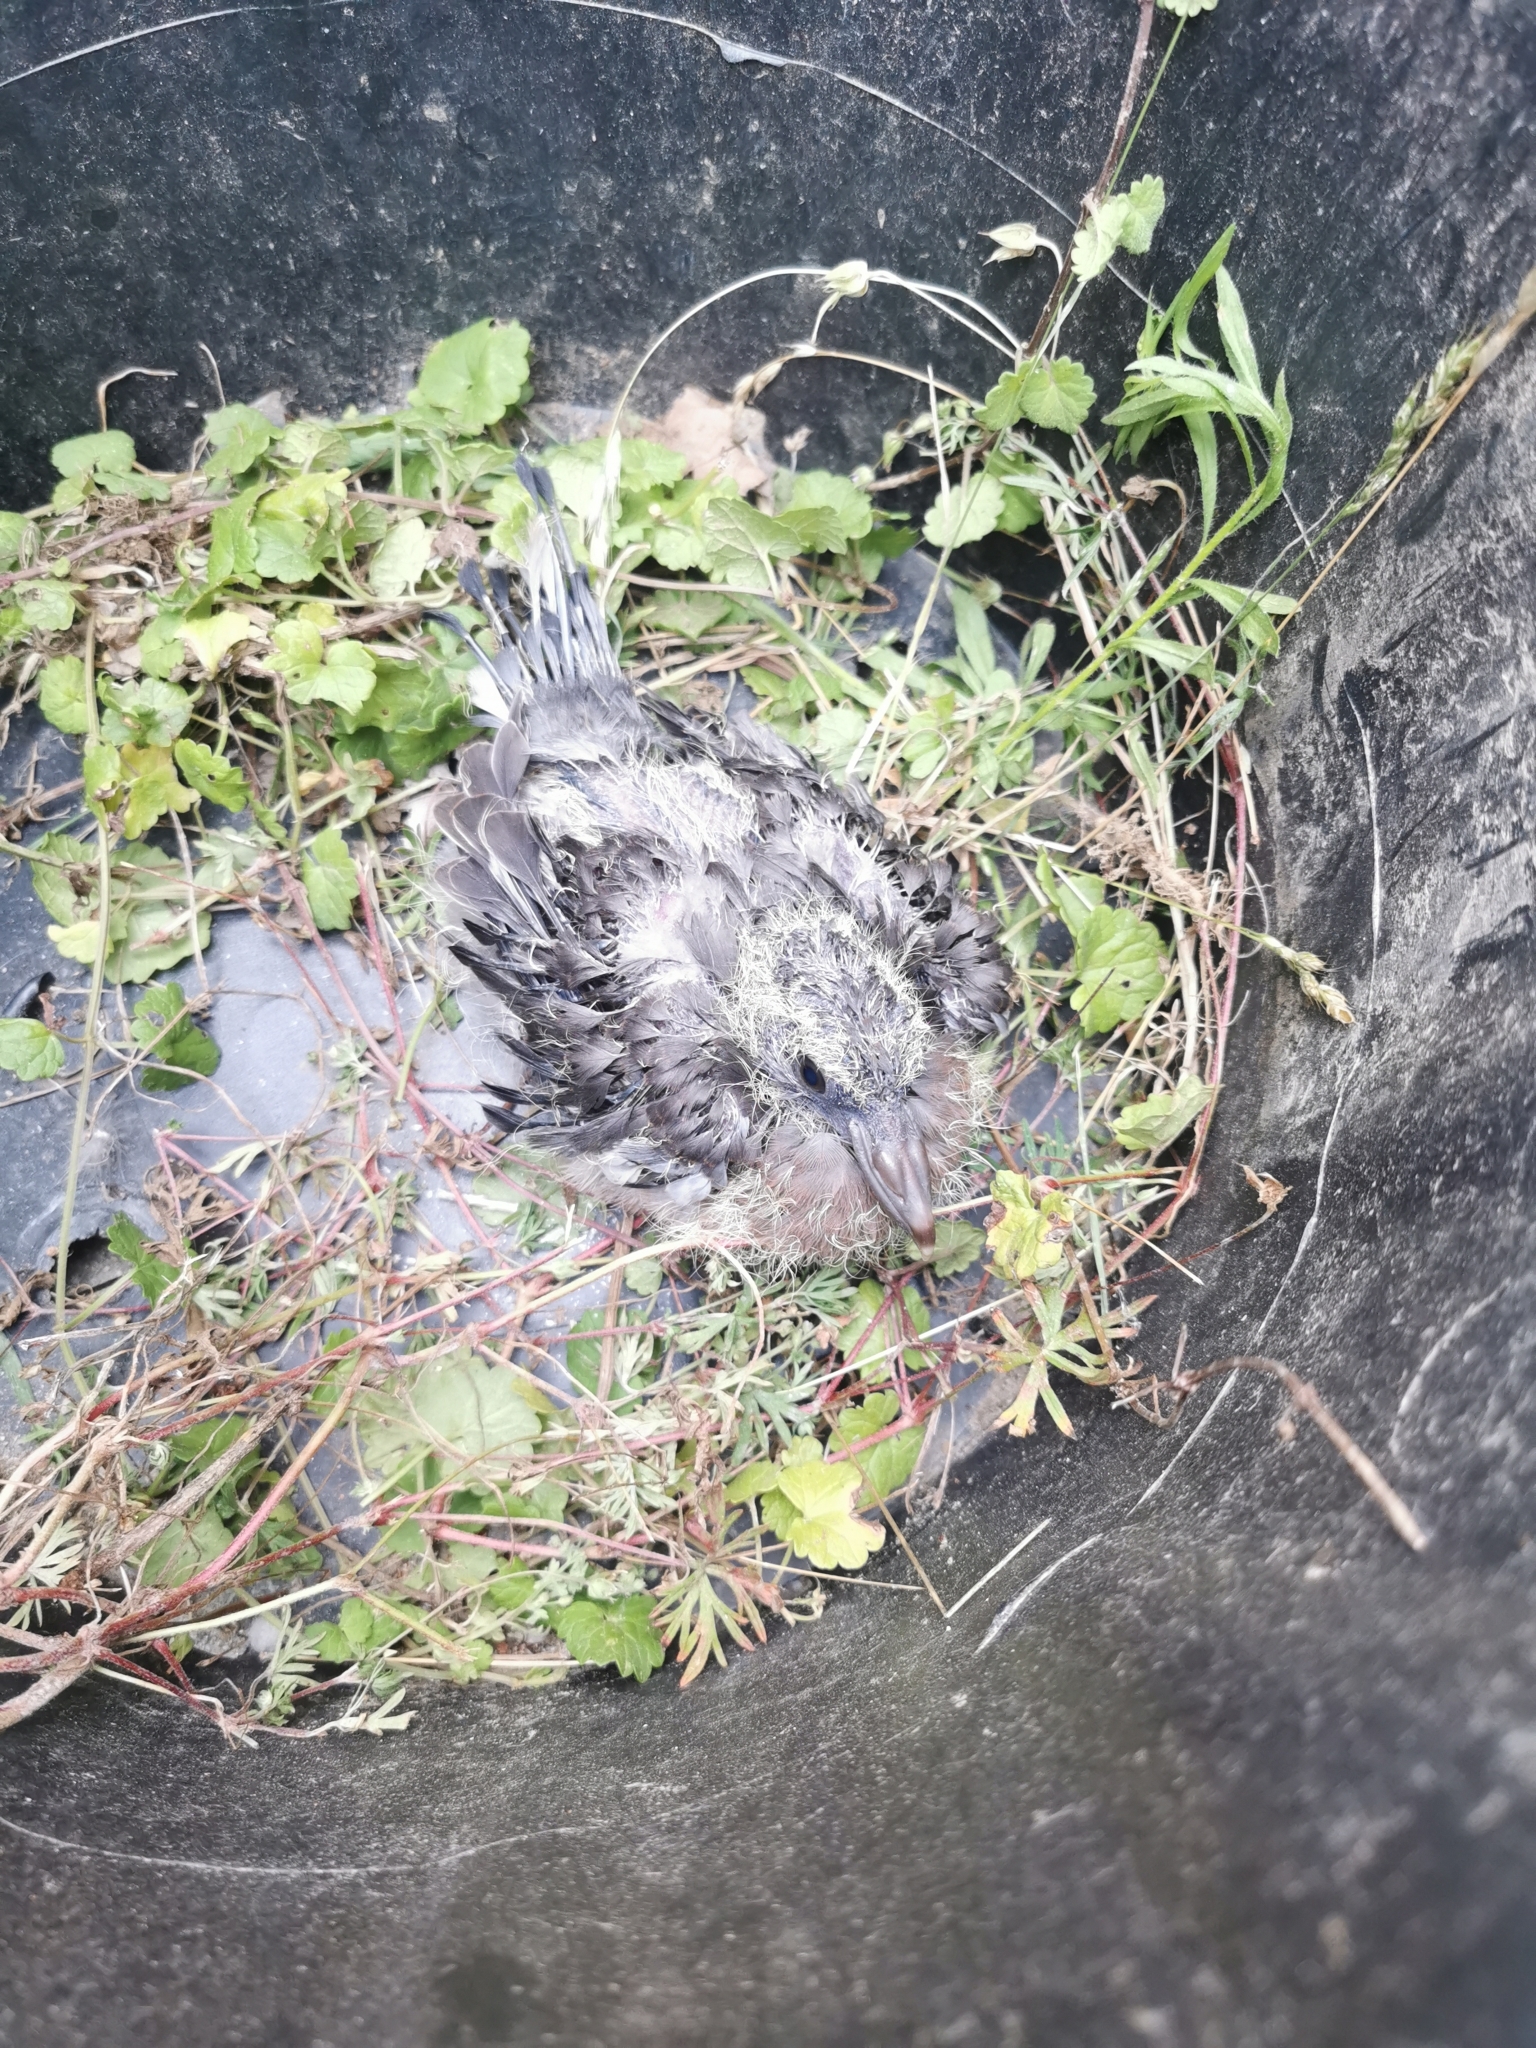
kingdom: Animalia
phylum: Chordata
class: Aves
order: Columbiformes
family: Columbidae
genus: Columba
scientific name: Columba palumbus
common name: Common wood pigeon
